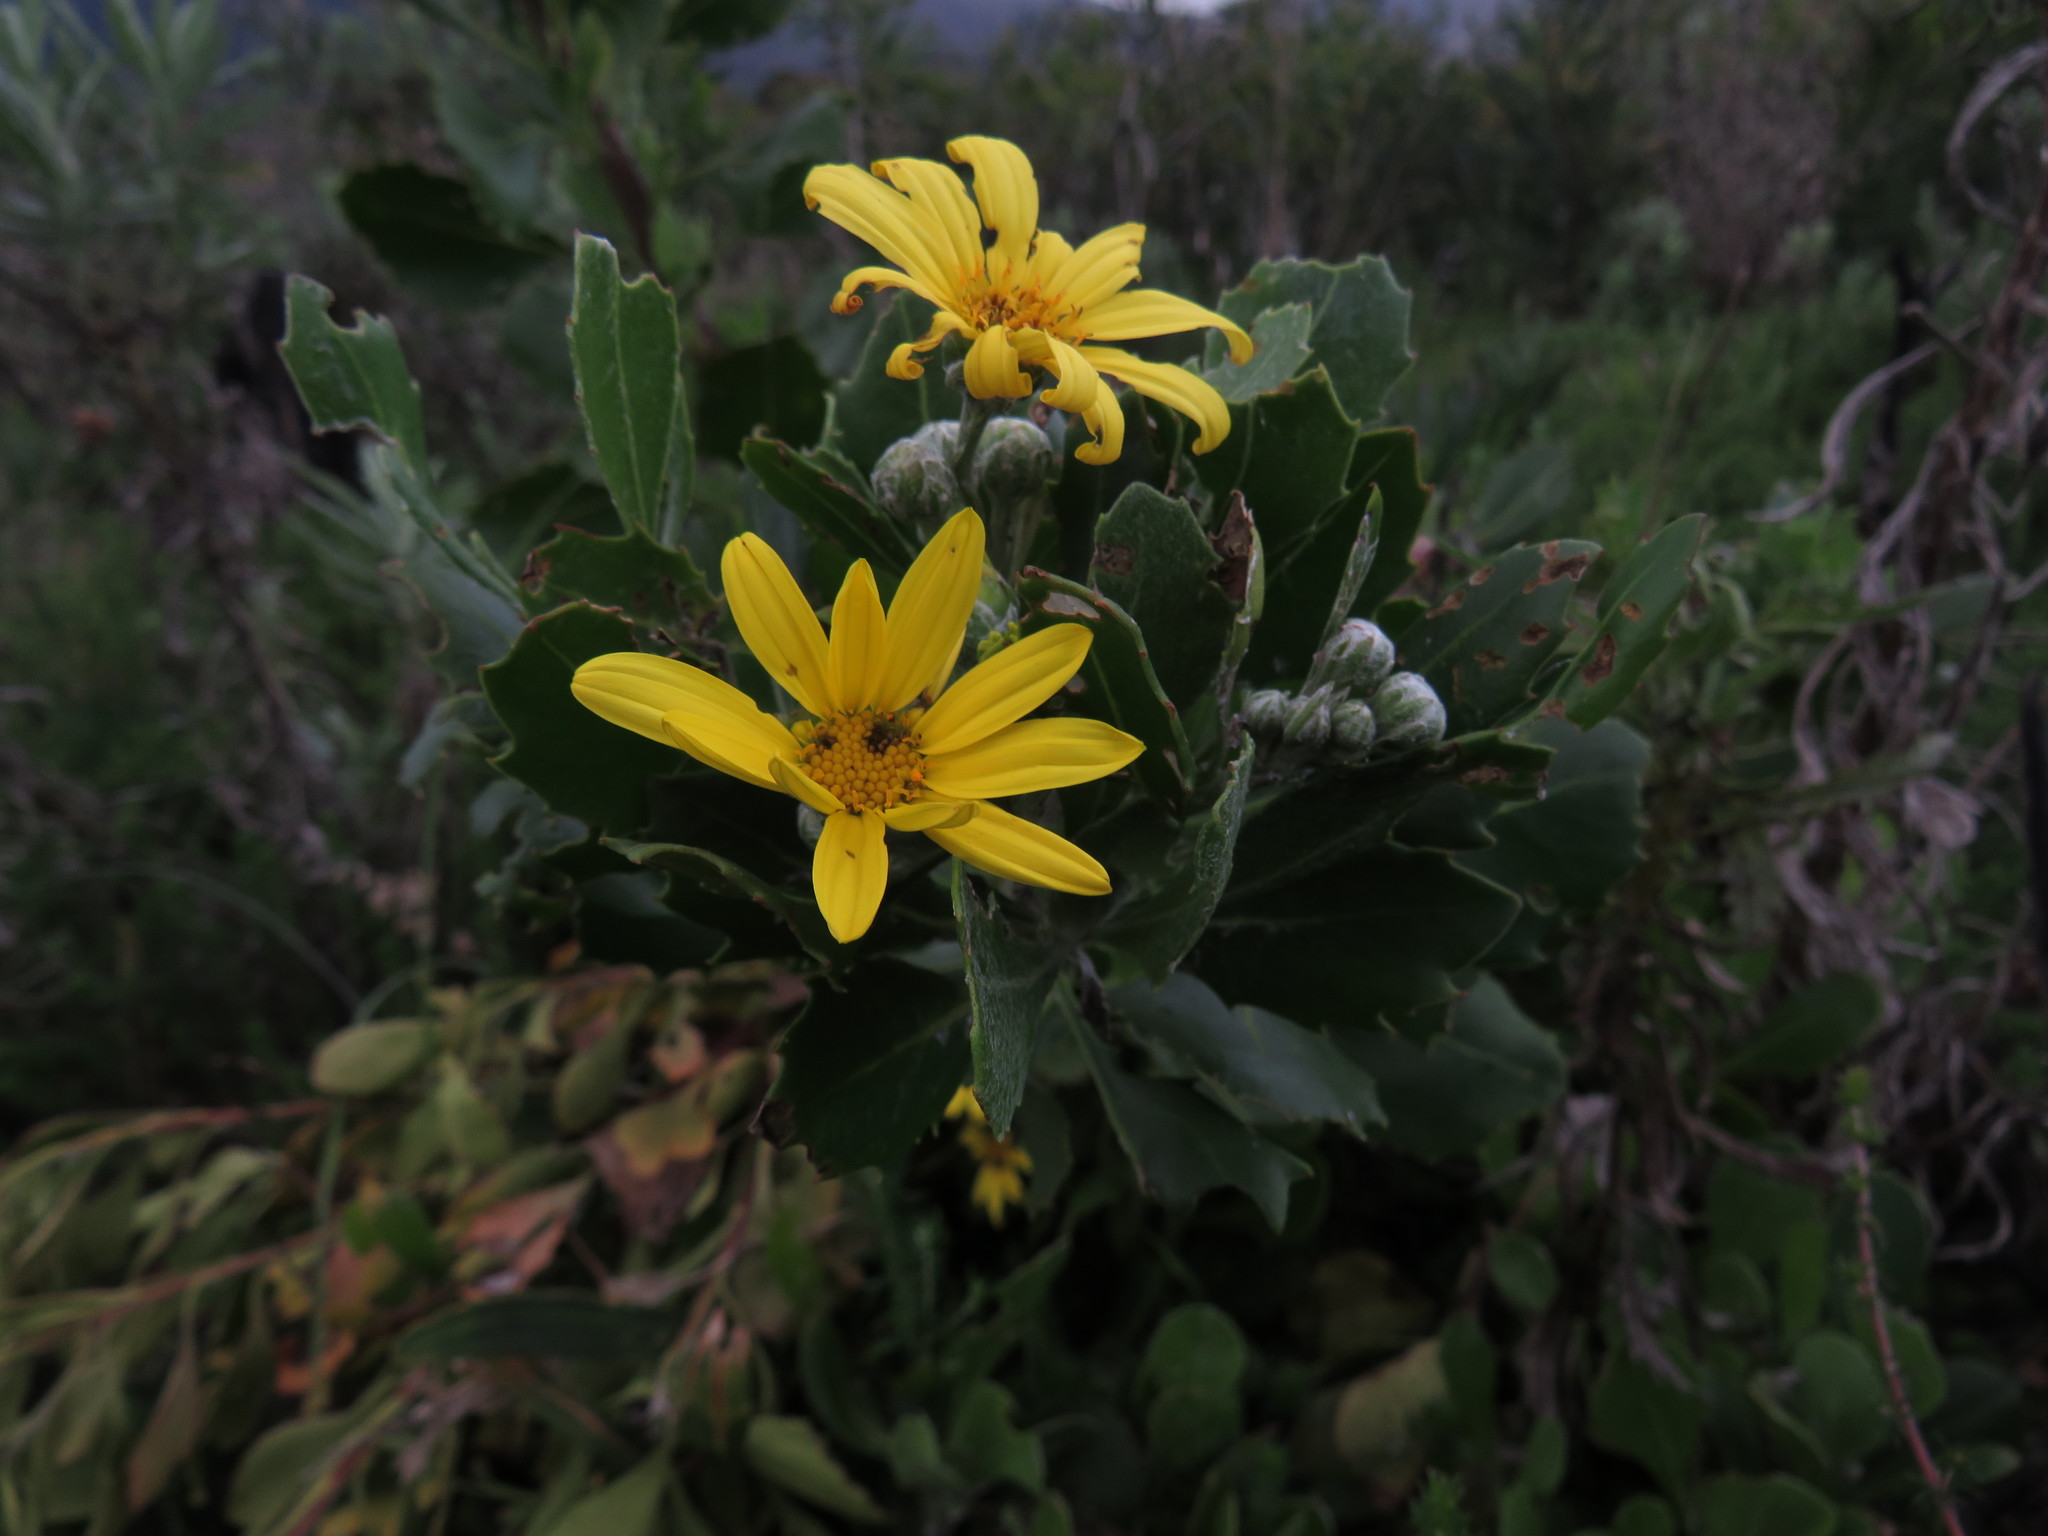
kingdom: Plantae
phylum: Tracheophyta
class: Magnoliopsida
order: Asterales
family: Asteraceae
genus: Osteospermum
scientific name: Osteospermum moniliferum
